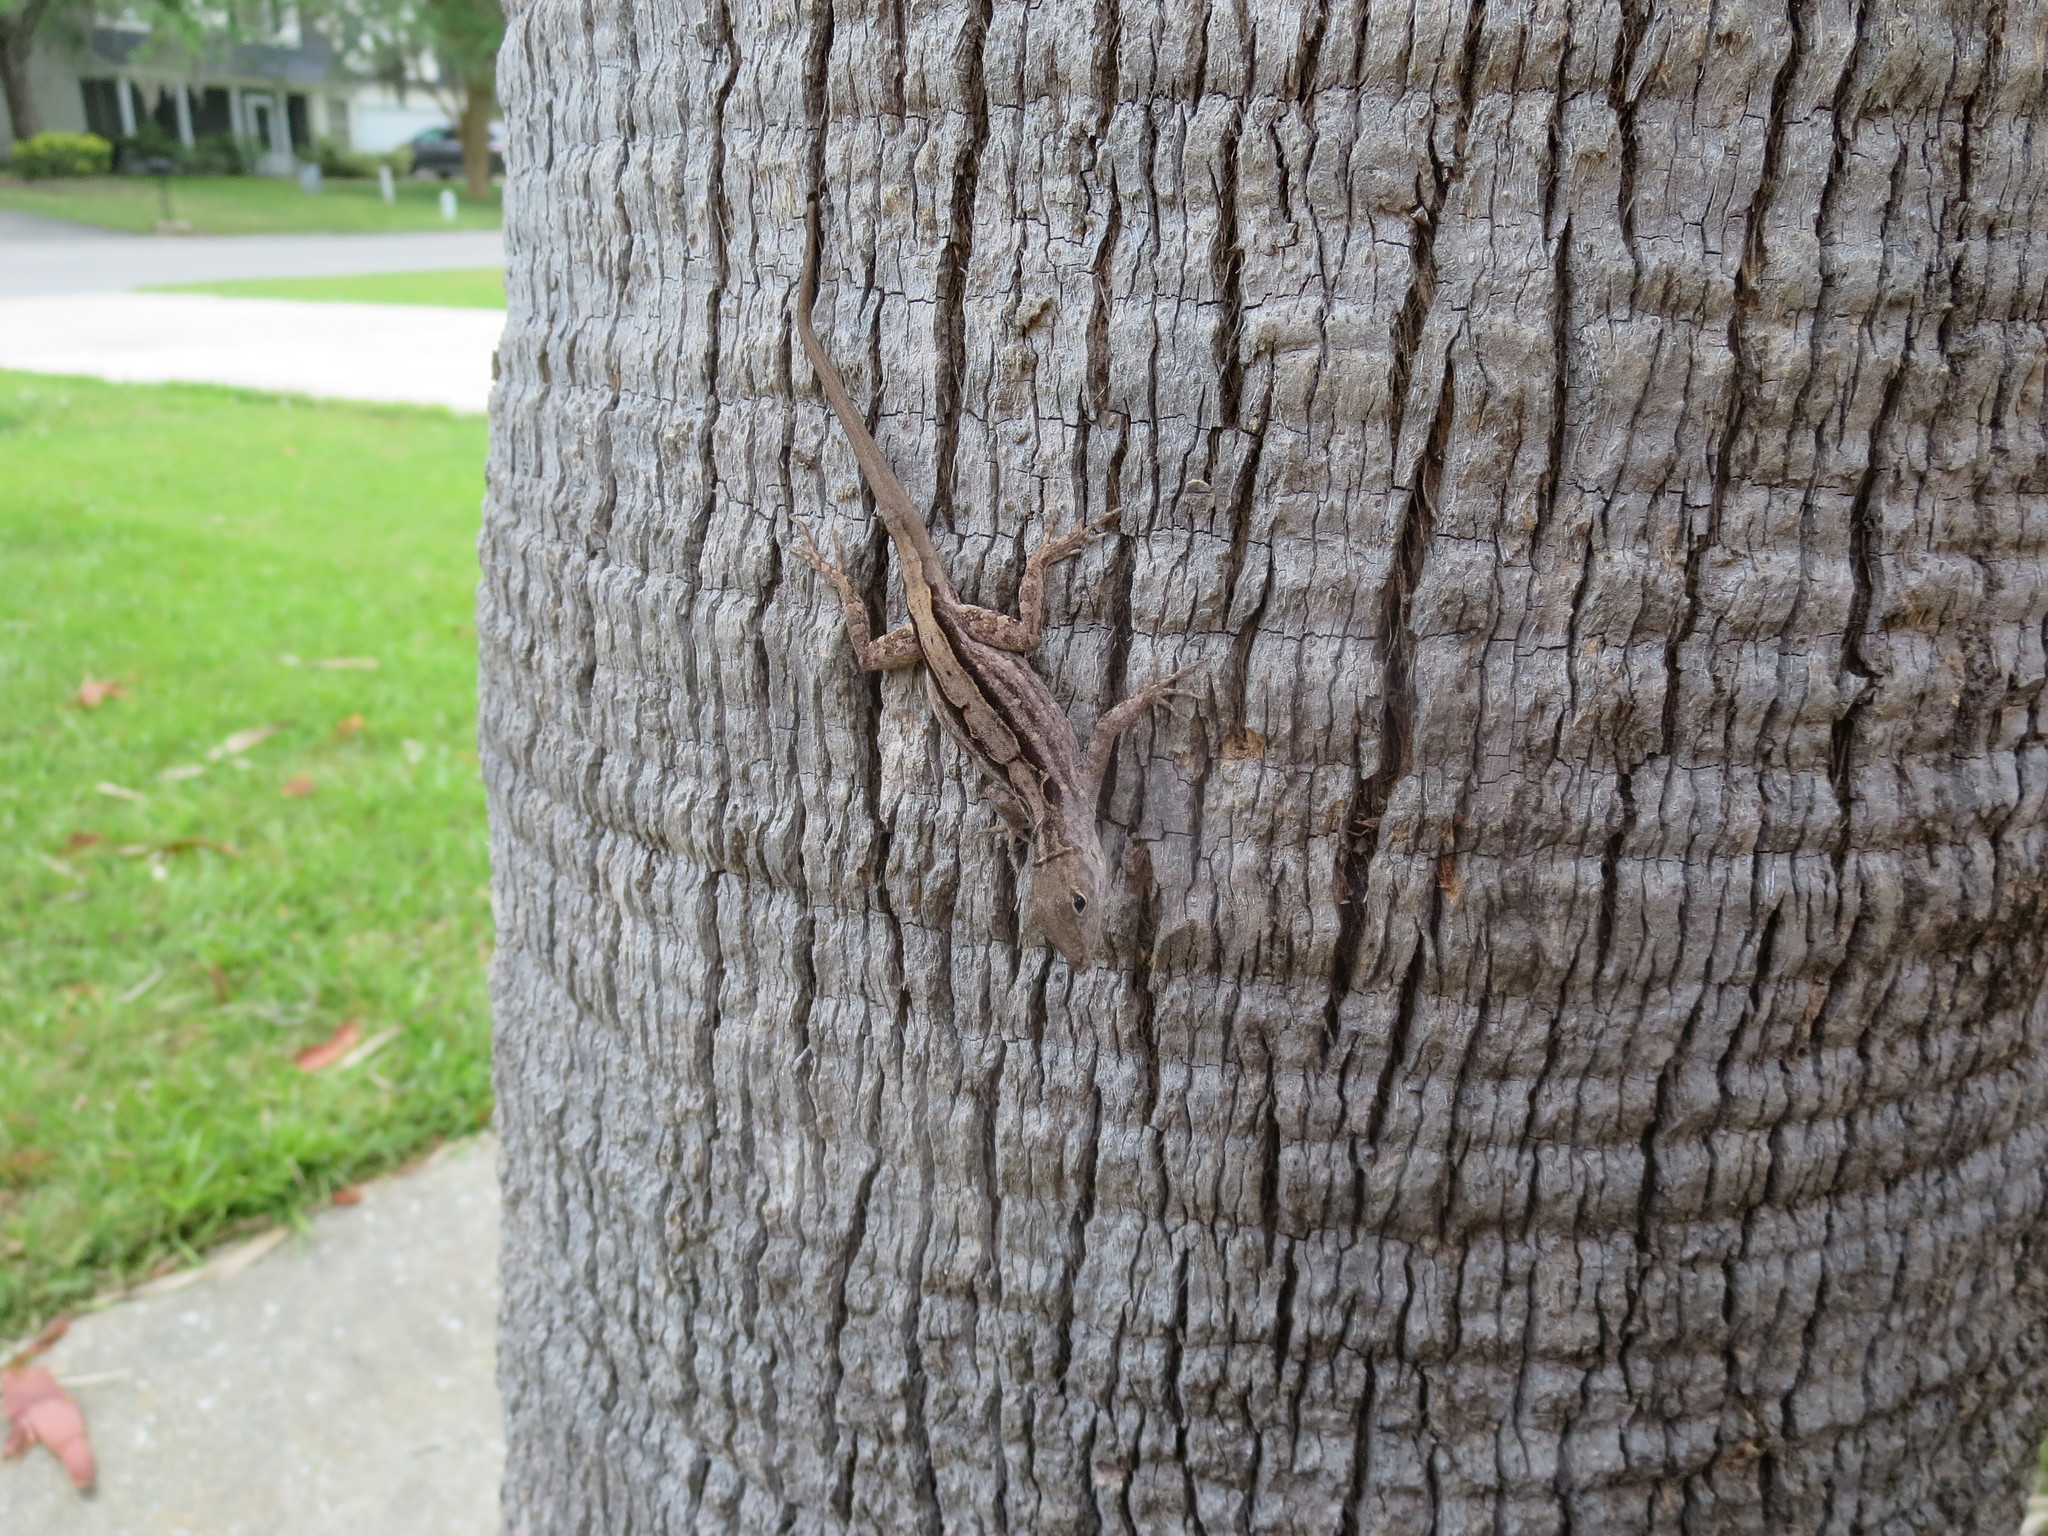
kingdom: Animalia
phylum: Chordata
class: Squamata
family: Dactyloidae
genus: Anolis
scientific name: Anolis sagrei
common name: Brown anole
